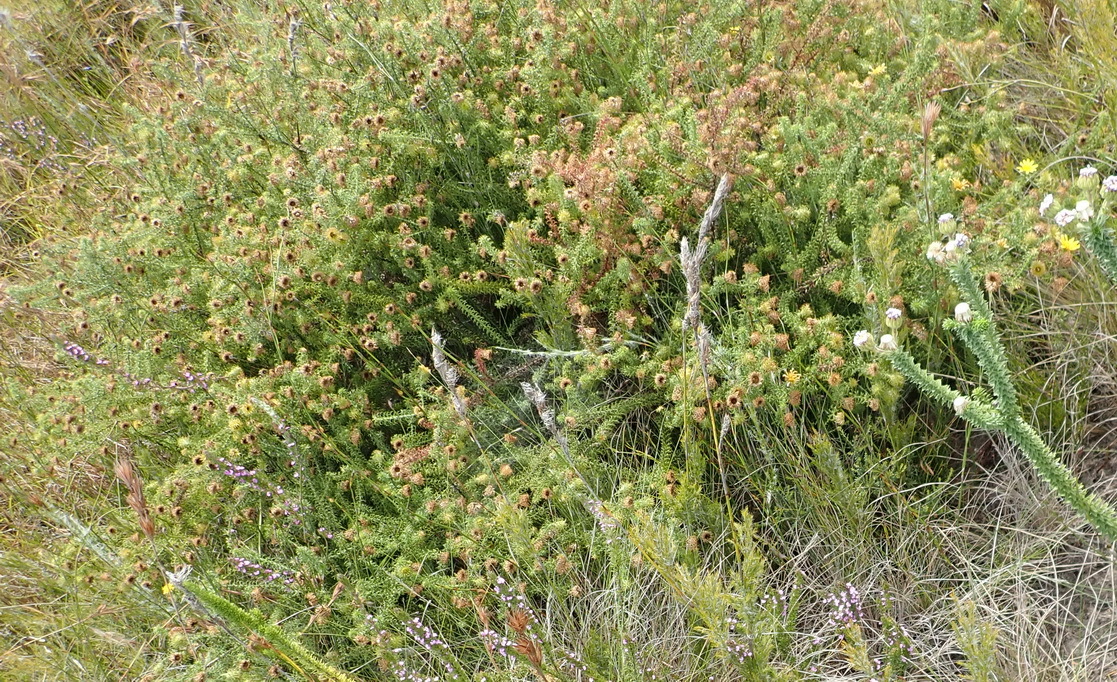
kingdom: Plantae
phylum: Tracheophyta
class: Magnoliopsida
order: Asterales
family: Asteraceae
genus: Cullumia
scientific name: Cullumia decurrens
